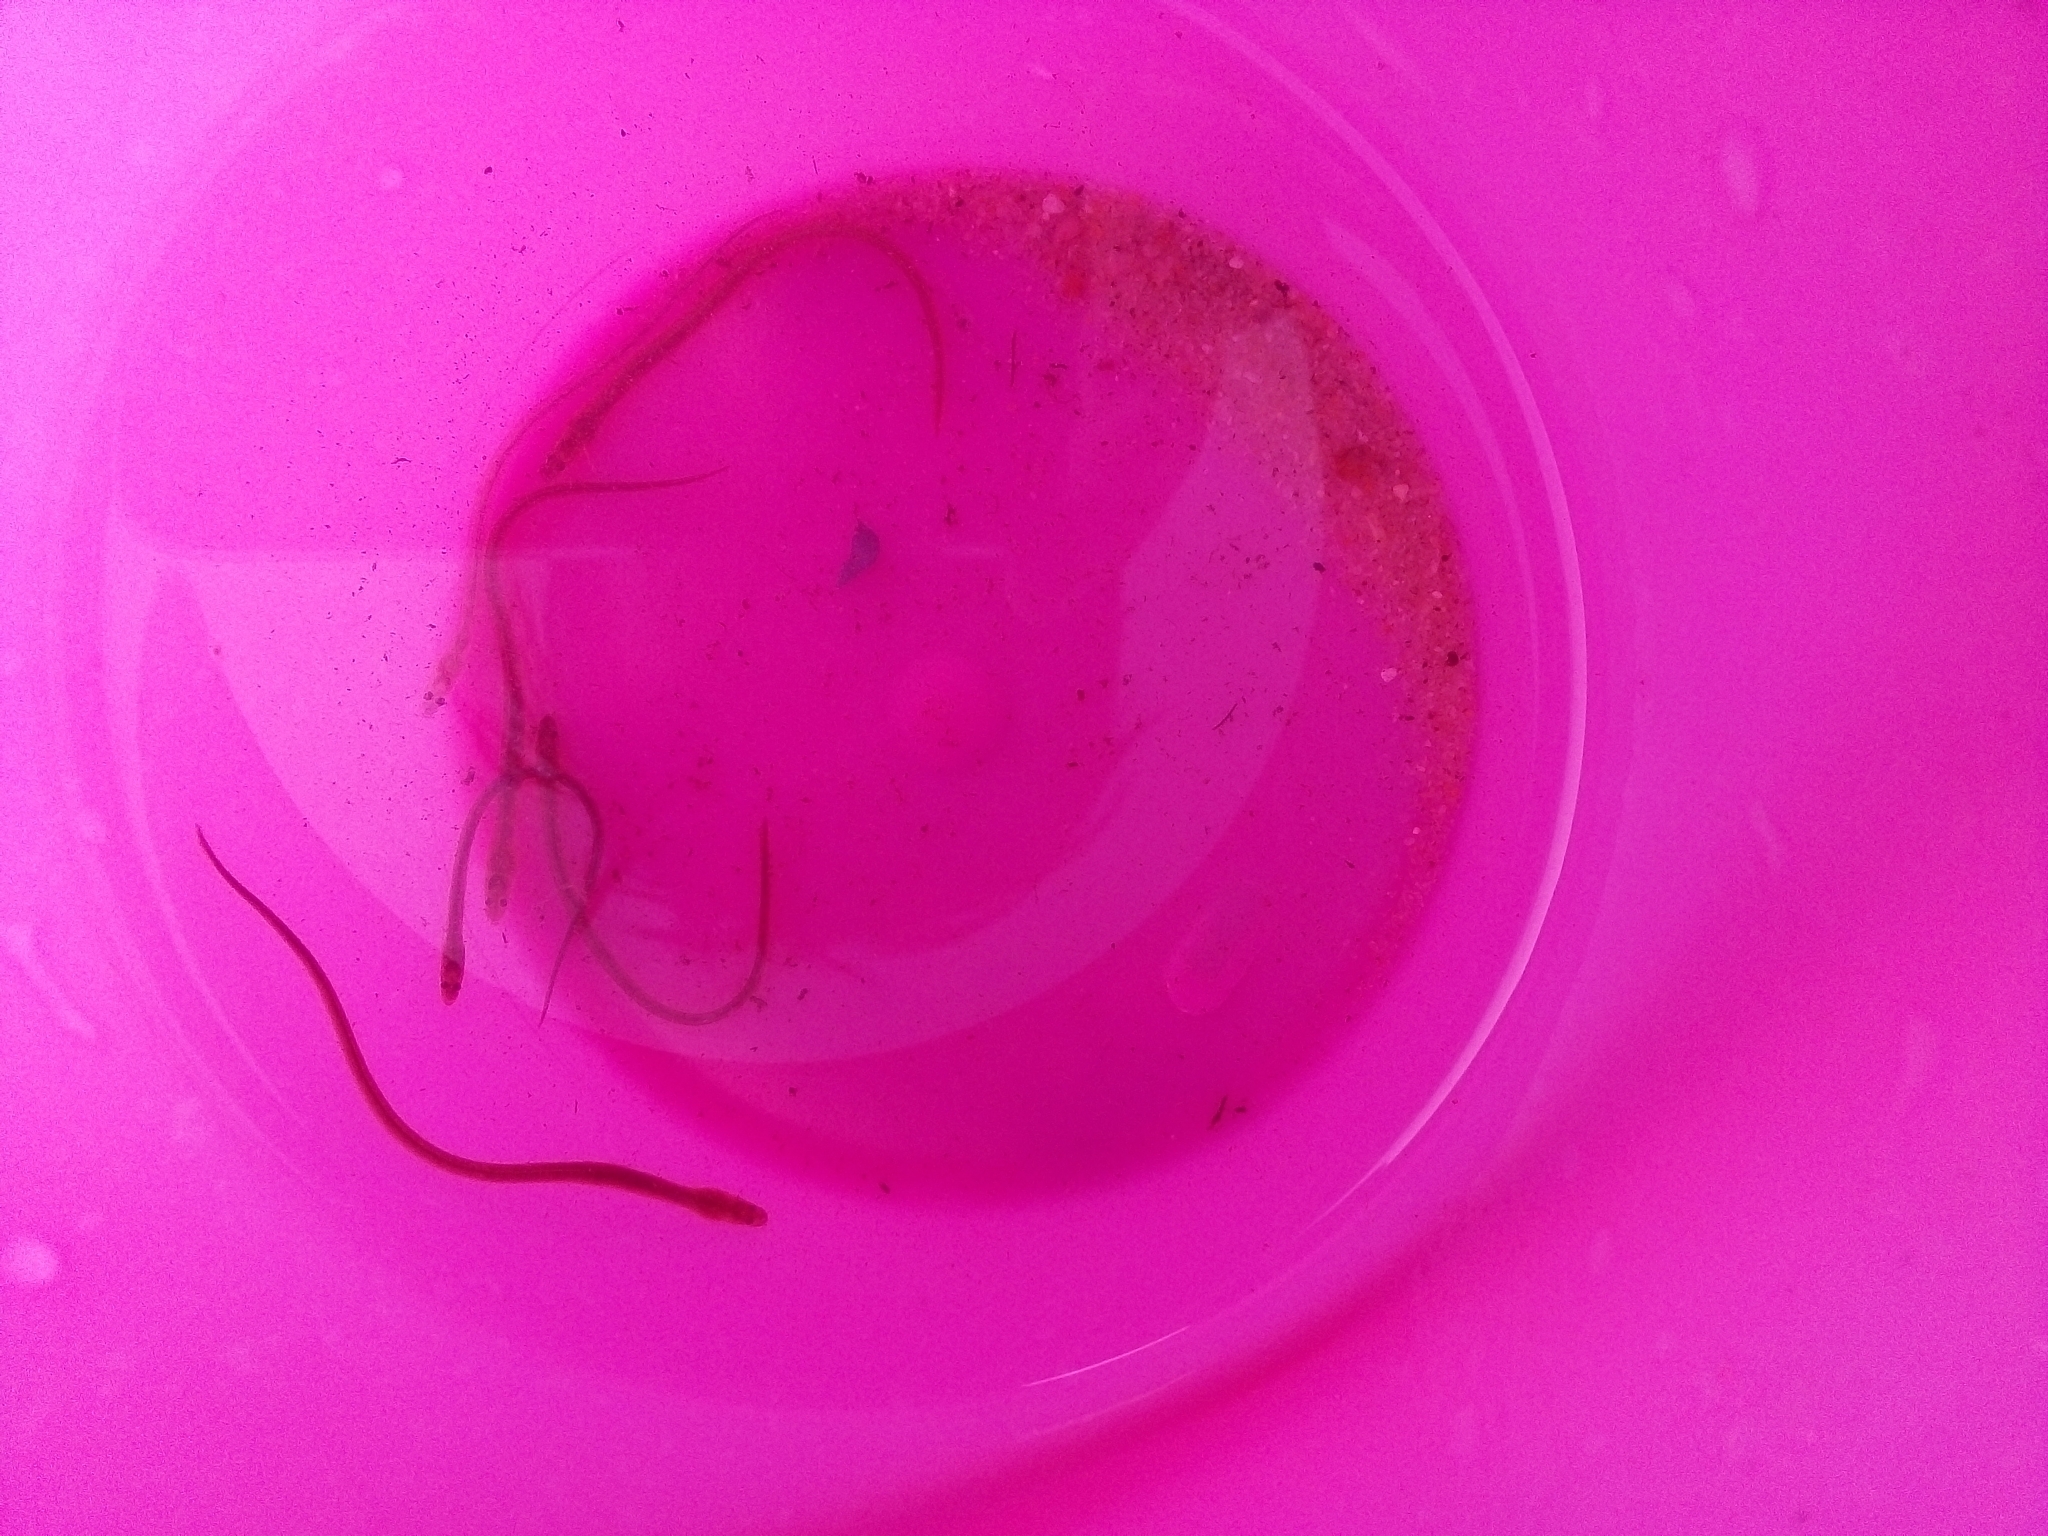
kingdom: Animalia
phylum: Chordata
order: Anguilliformes
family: Anguillidae
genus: Anguilla
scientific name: Anguilla anguilla
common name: European eel
